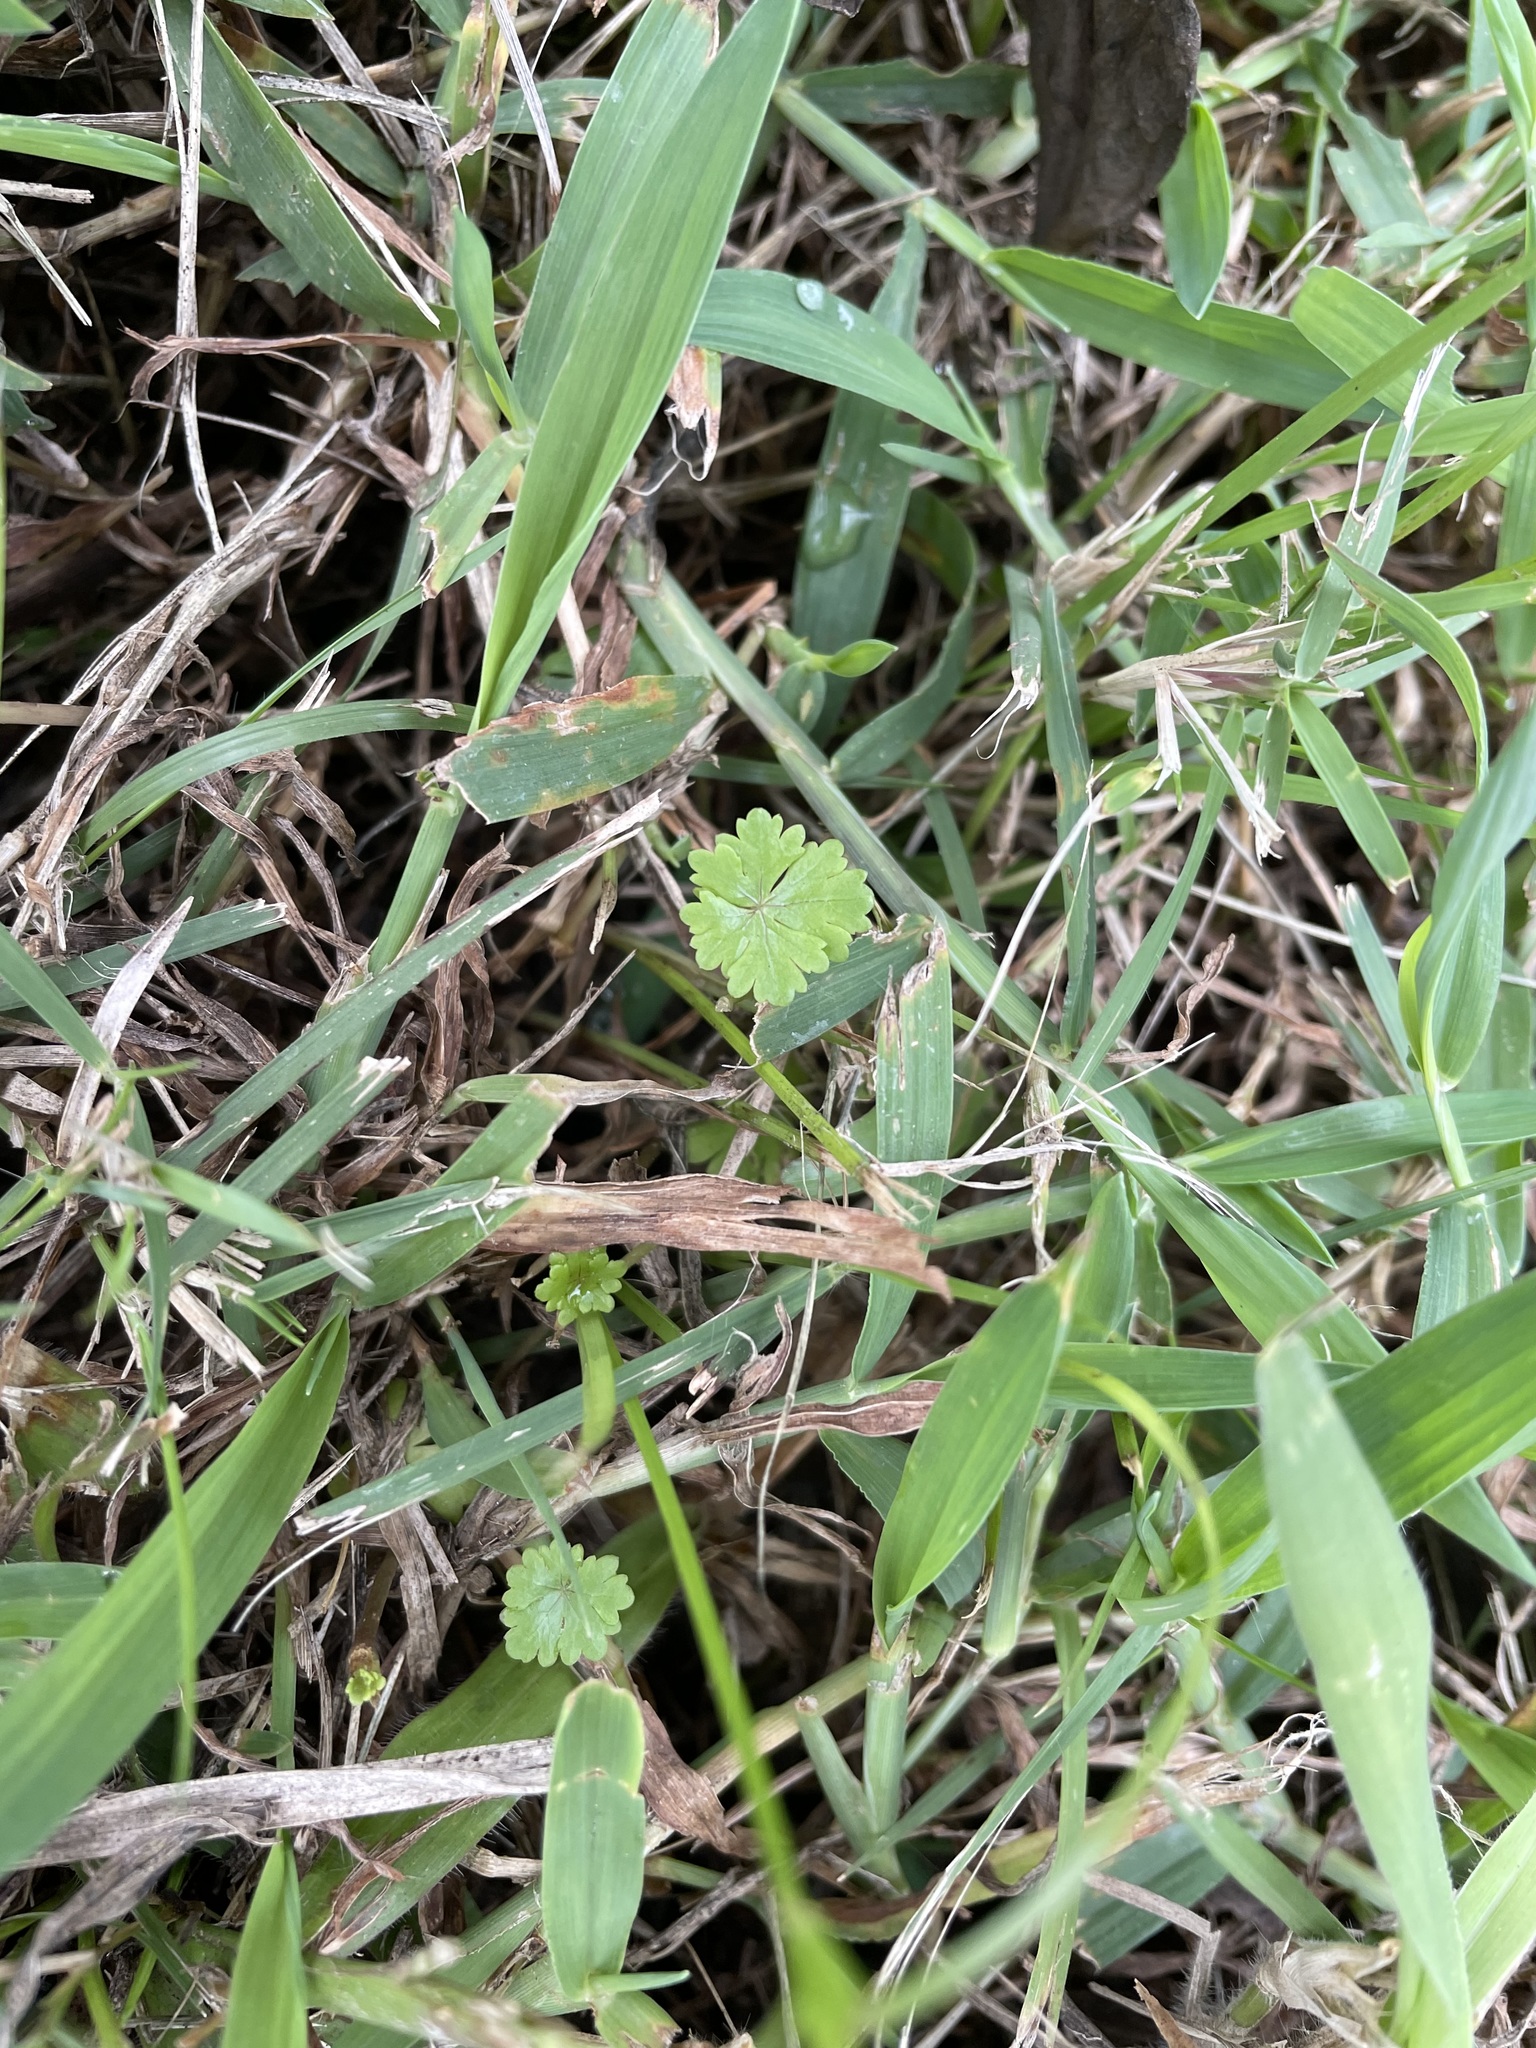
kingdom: Plantae
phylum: Tracheophyta
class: Magnoliopsida
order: Apiales
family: Araliaceae
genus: Hydrocotyle
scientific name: Hydrocotyle batrachium
